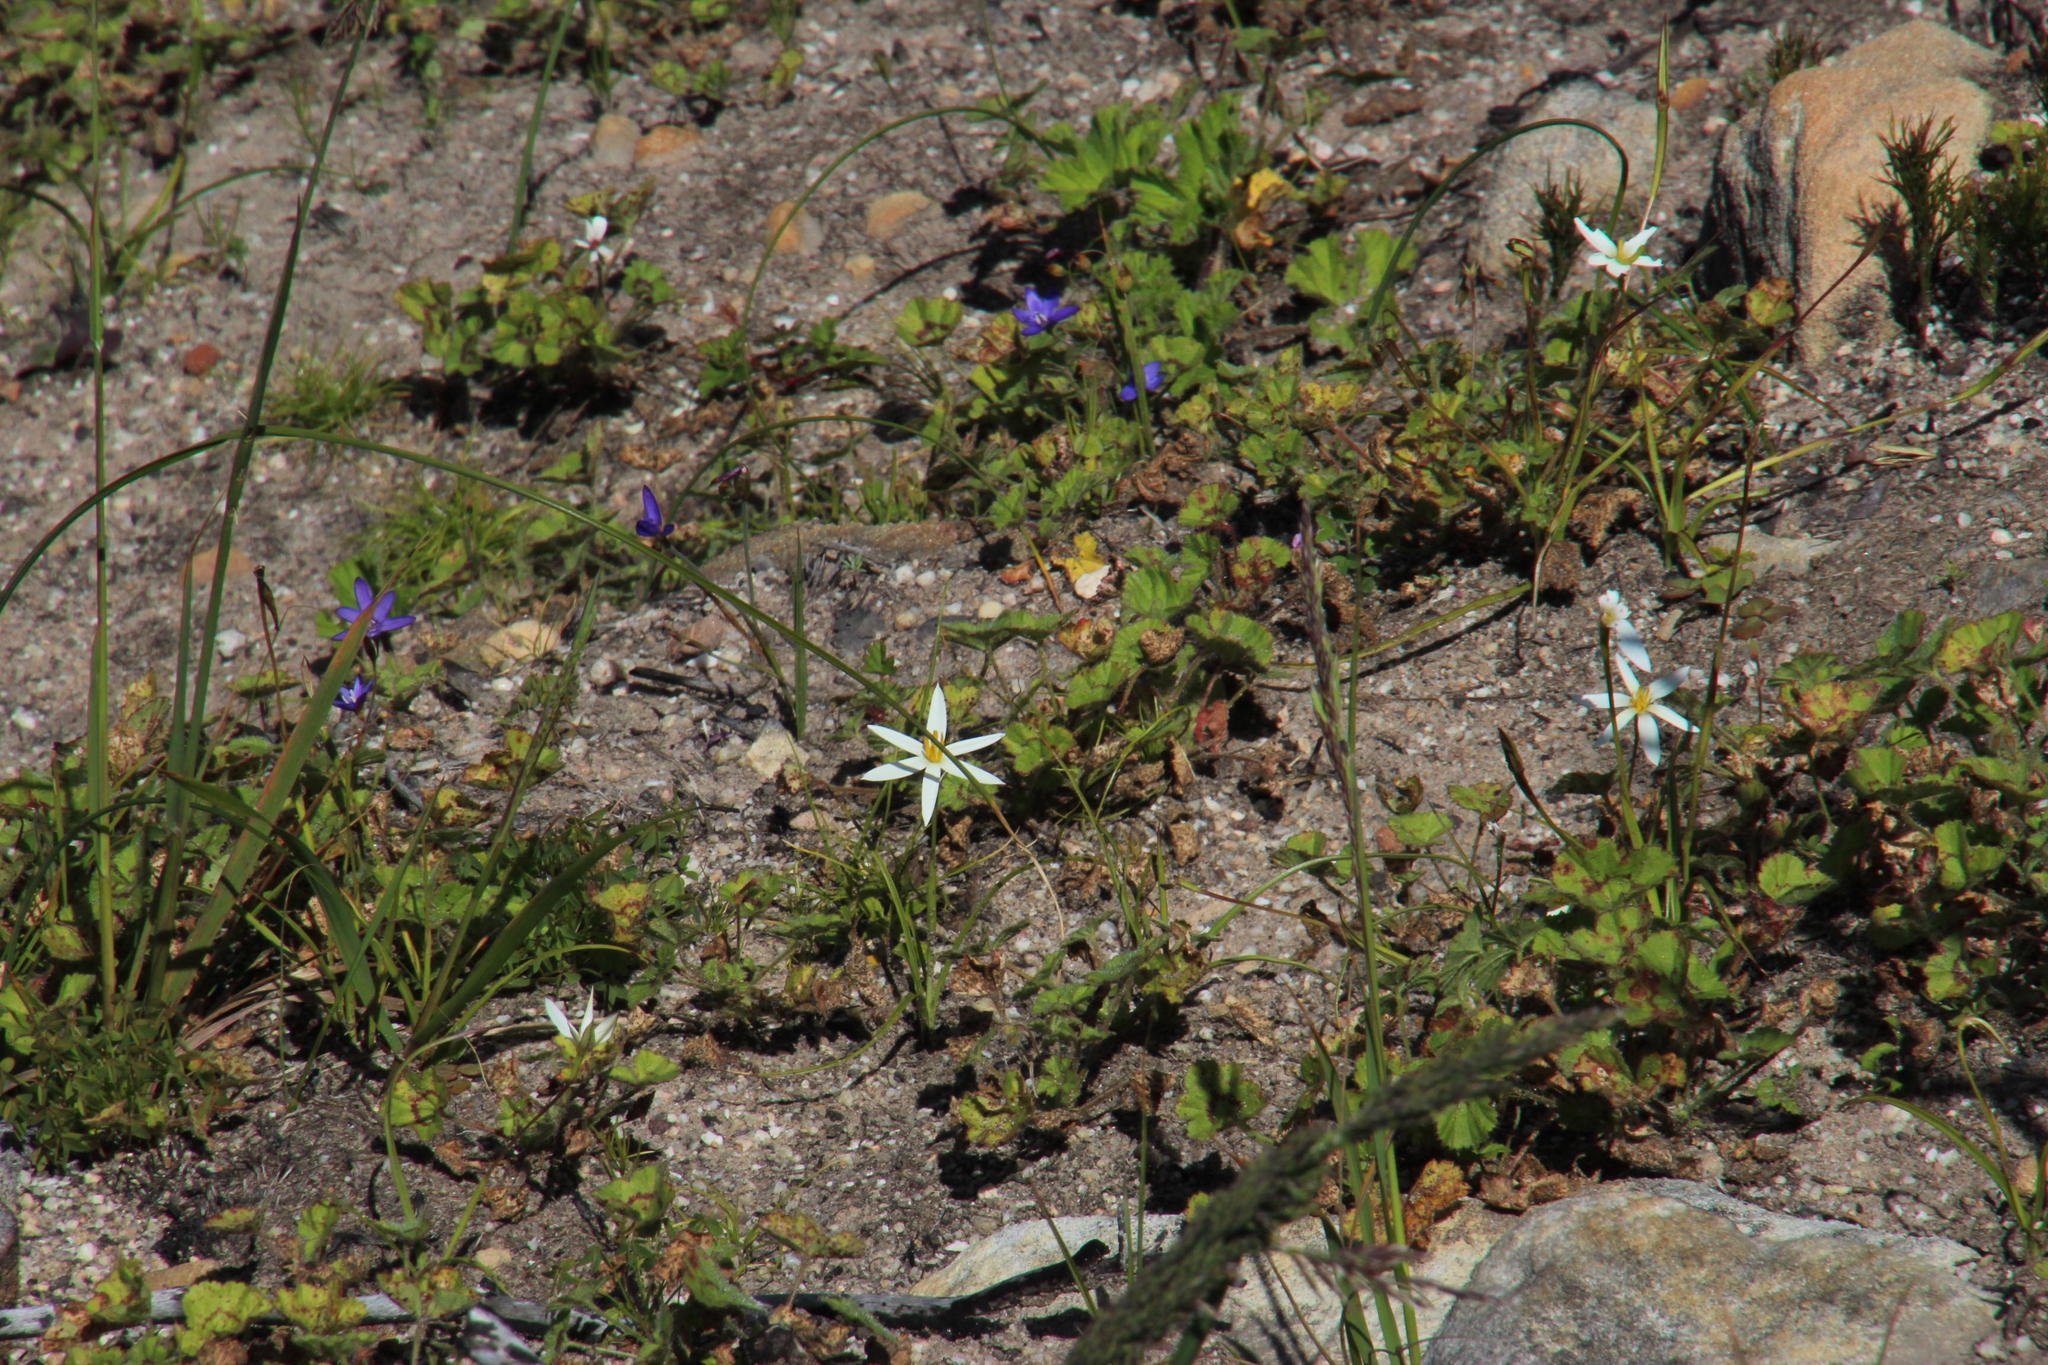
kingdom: Plantae
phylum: Tracheophyta
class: Liliopsida
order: Asparagales
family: Hypoxidaceae
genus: Pauridia
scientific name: Pauridia capensis
